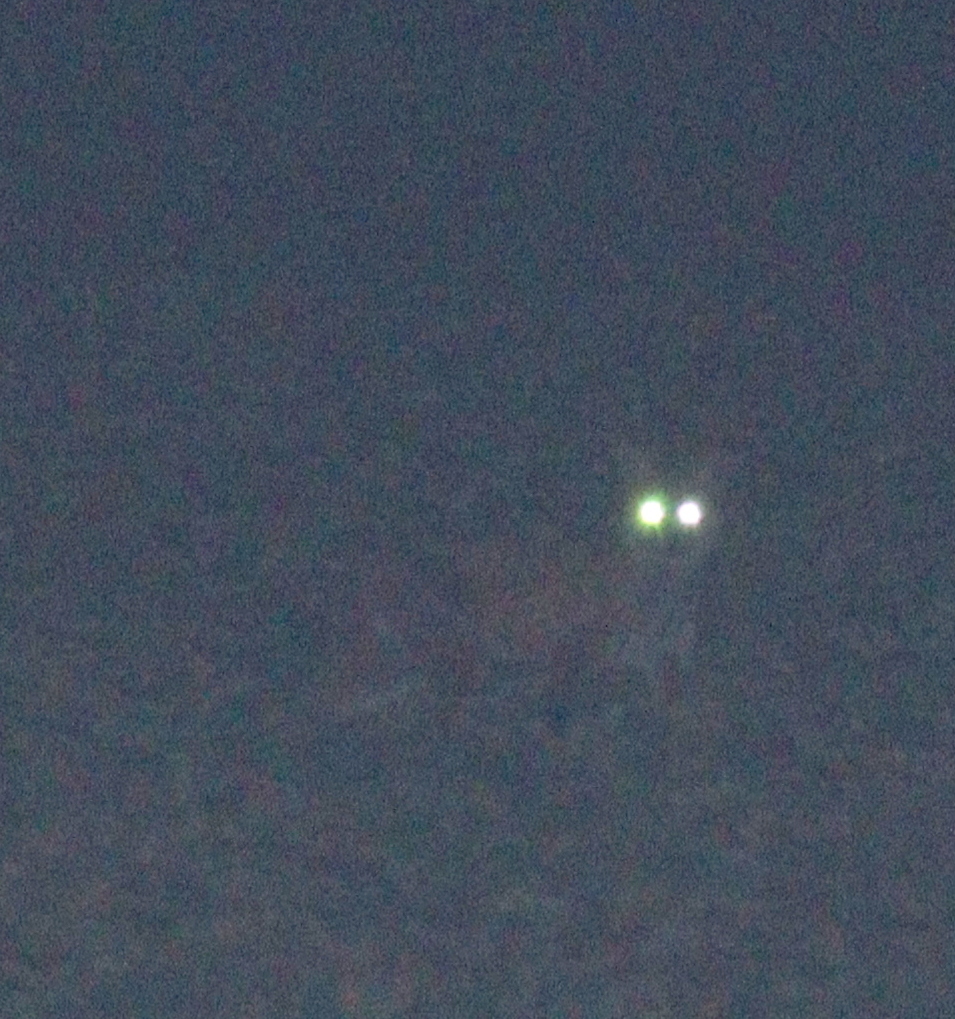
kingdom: Animalia
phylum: Chordata
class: Mammalia
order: Carnivora
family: Canidae
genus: Vulpes
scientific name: Vulpes vulpes
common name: Red fox
